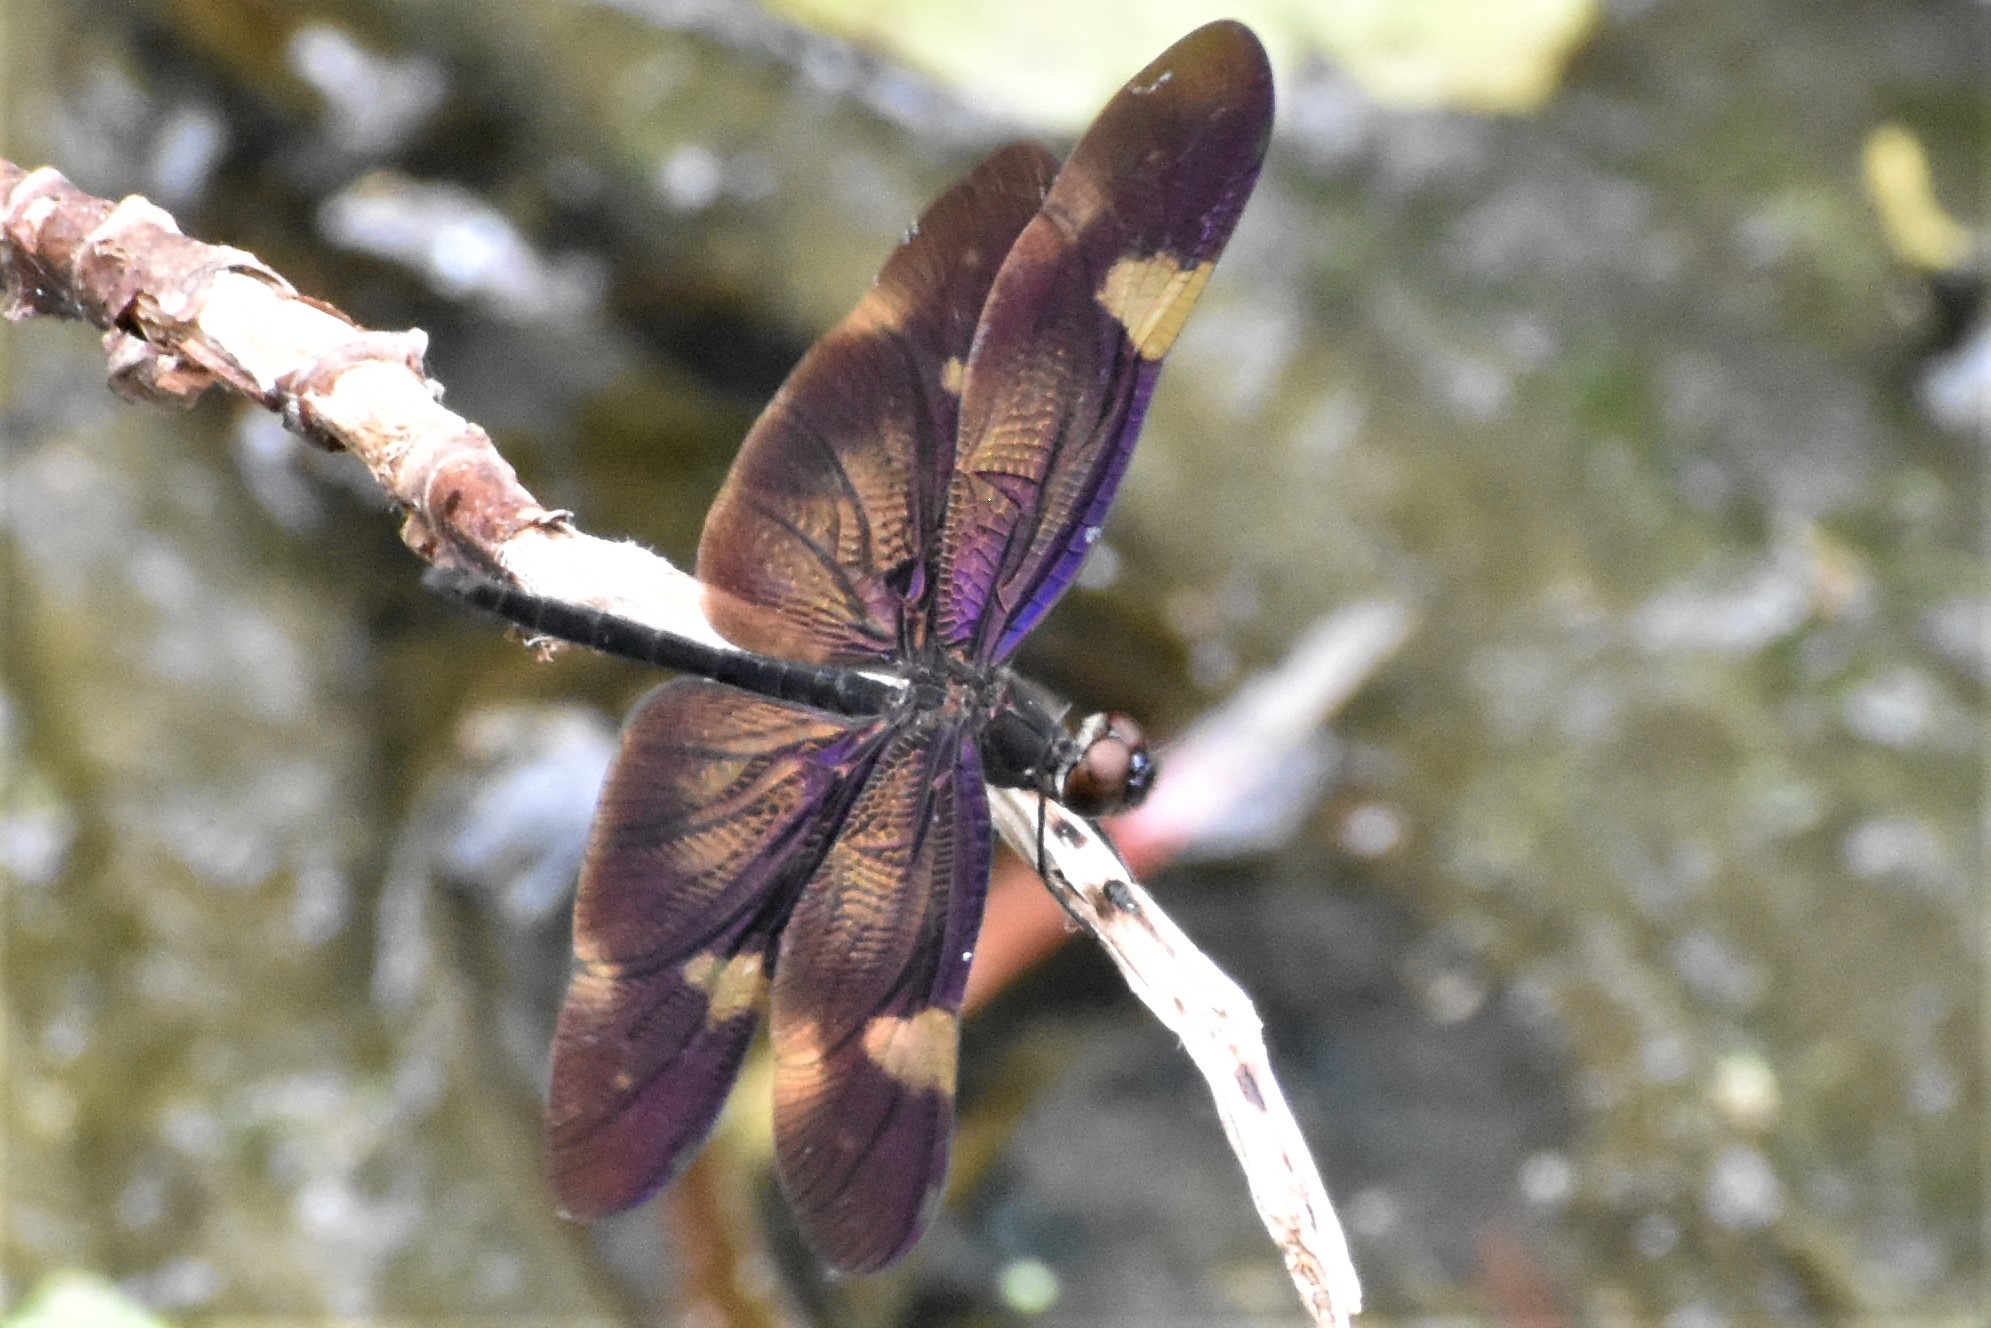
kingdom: Animalia
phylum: Arthropoda
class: Insecta
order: Odonata
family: Libellulidae
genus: Rhyothemis
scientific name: Rhyothemis princeps
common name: Sapphire flutterer
